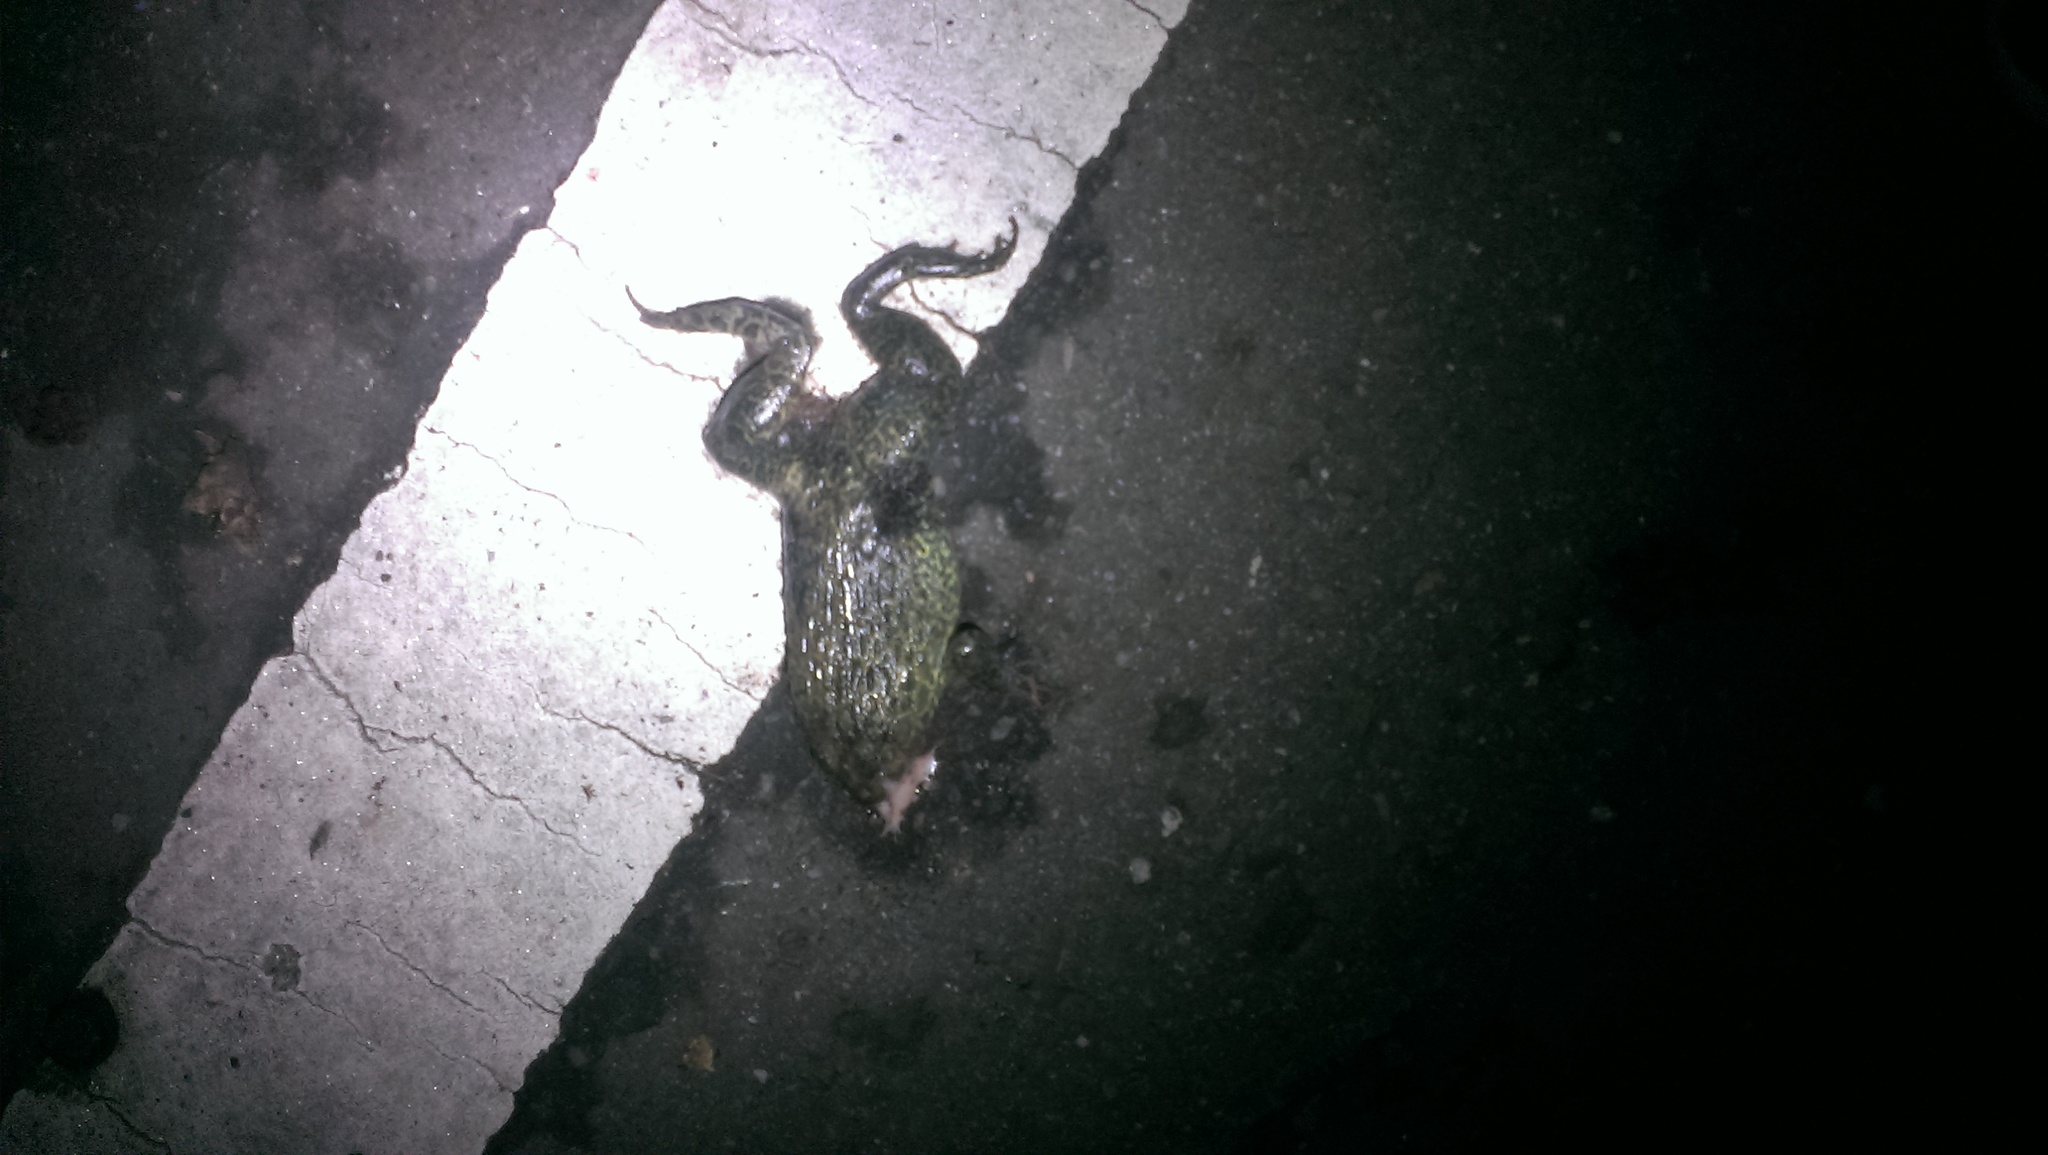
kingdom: Animalia
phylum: Chordata
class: Amphibia
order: Anura
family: Dicroglossidae
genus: Hoplobatrachus
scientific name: Hoplobatrachus rugulosus
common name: Chinese edible frog
